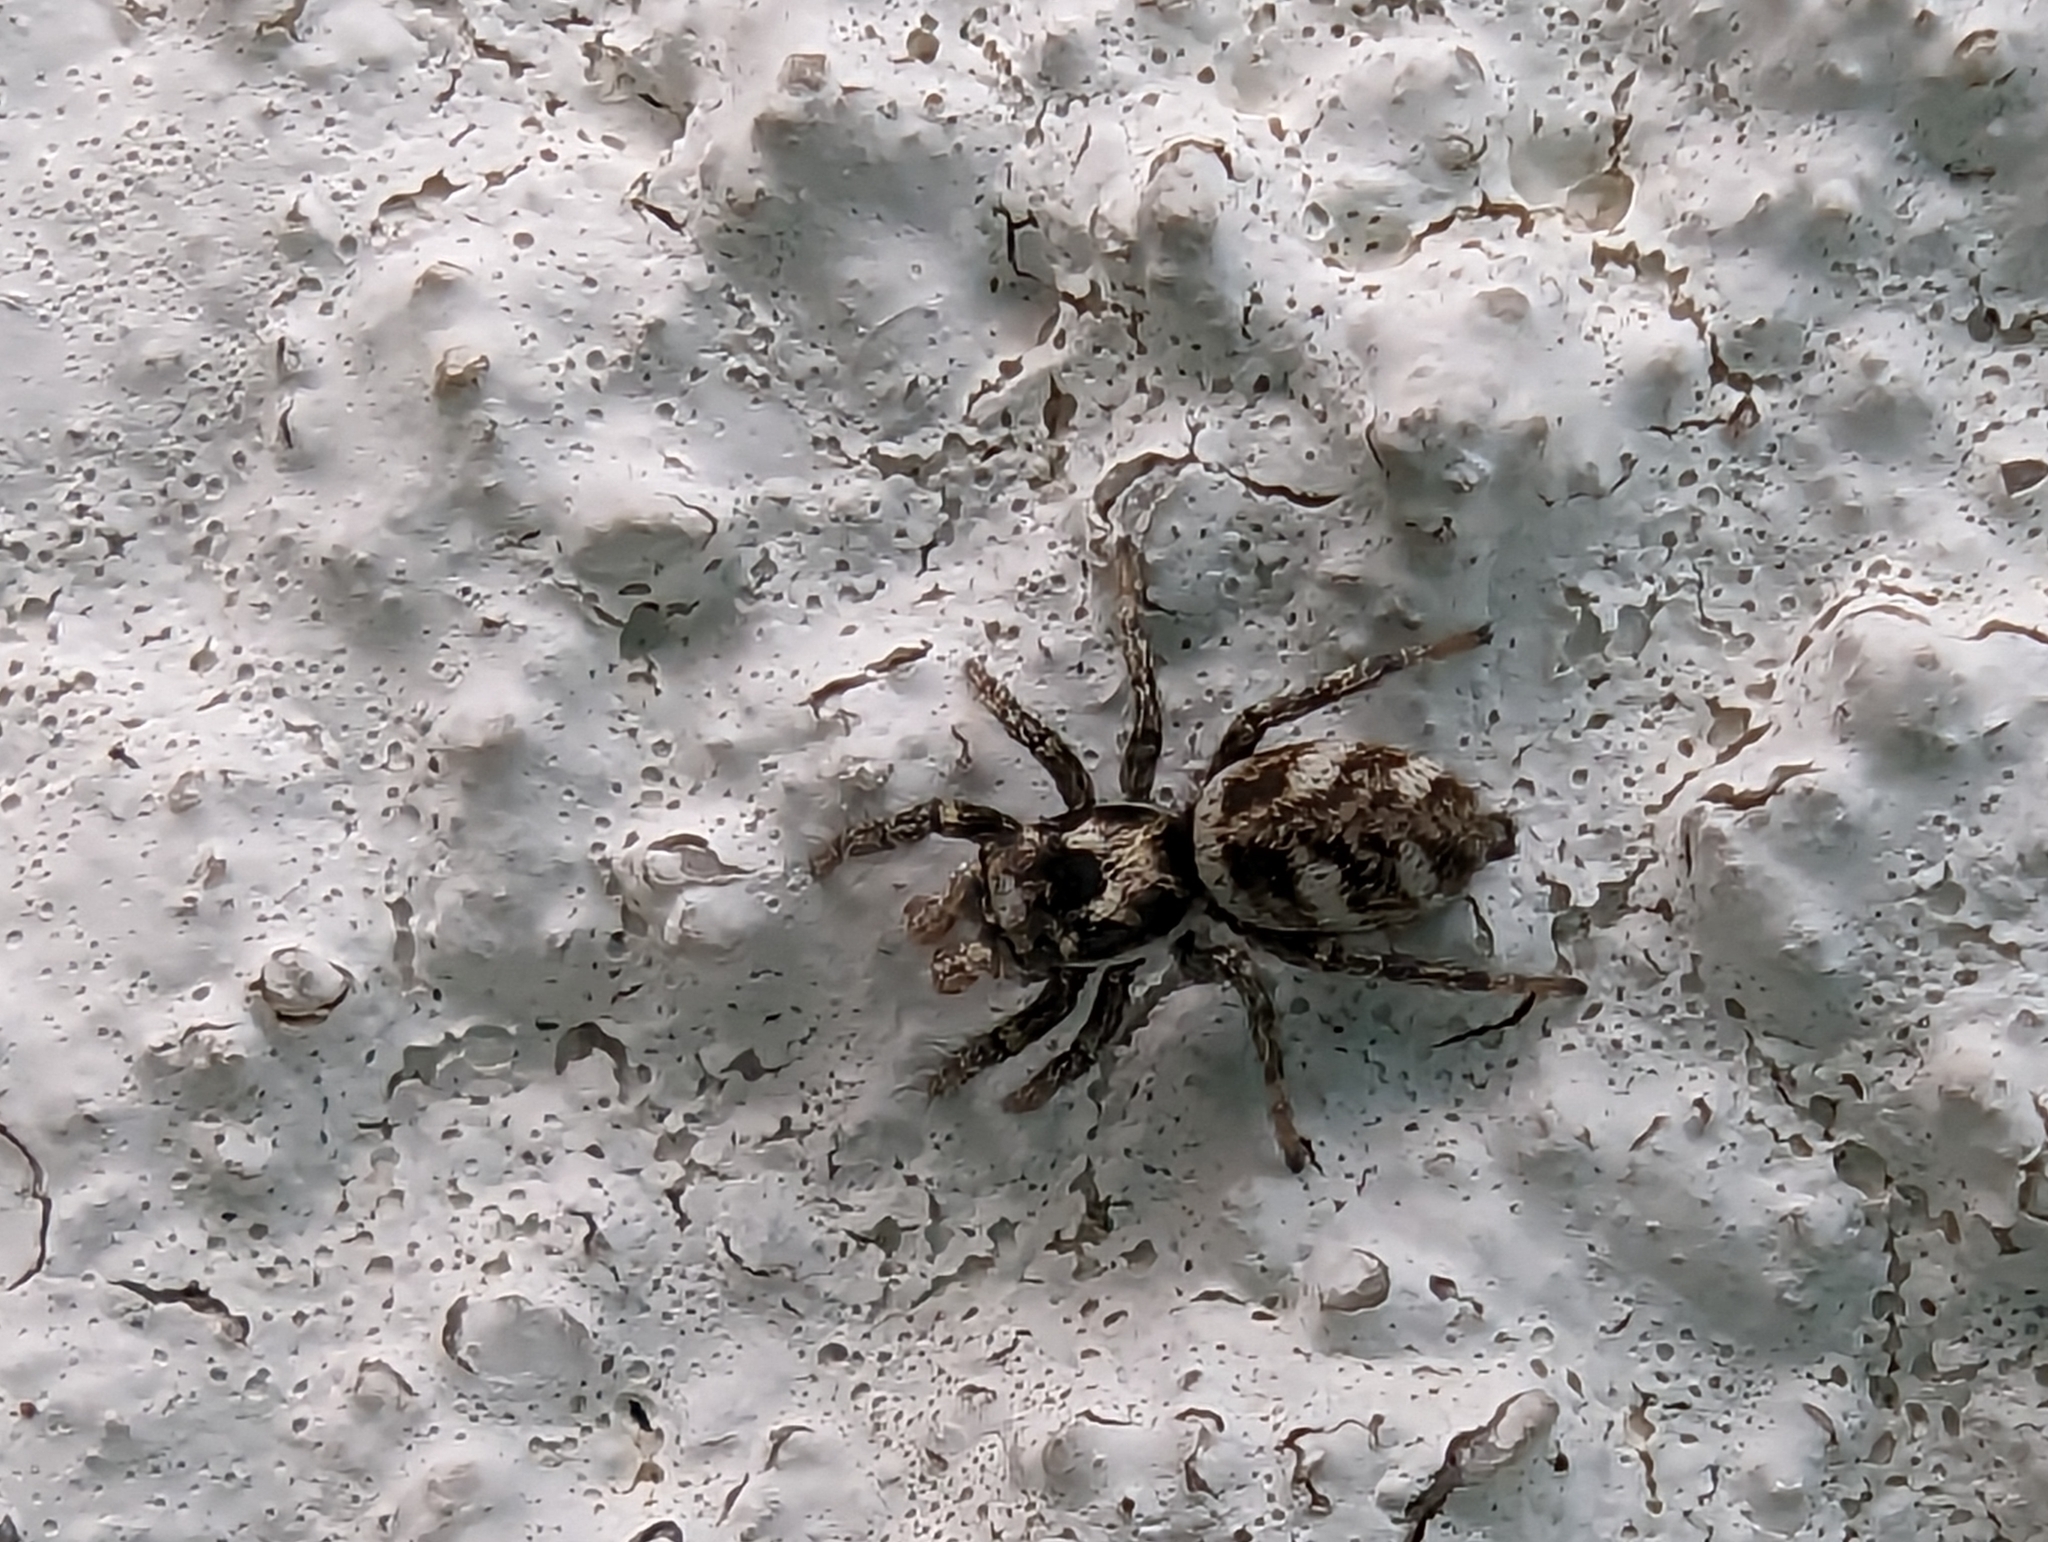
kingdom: Animalia
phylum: Arthropoda
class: Arachnida
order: Araneae
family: Salticidae
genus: Salticus
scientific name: Salticus scenicus
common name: Zebra jumper
